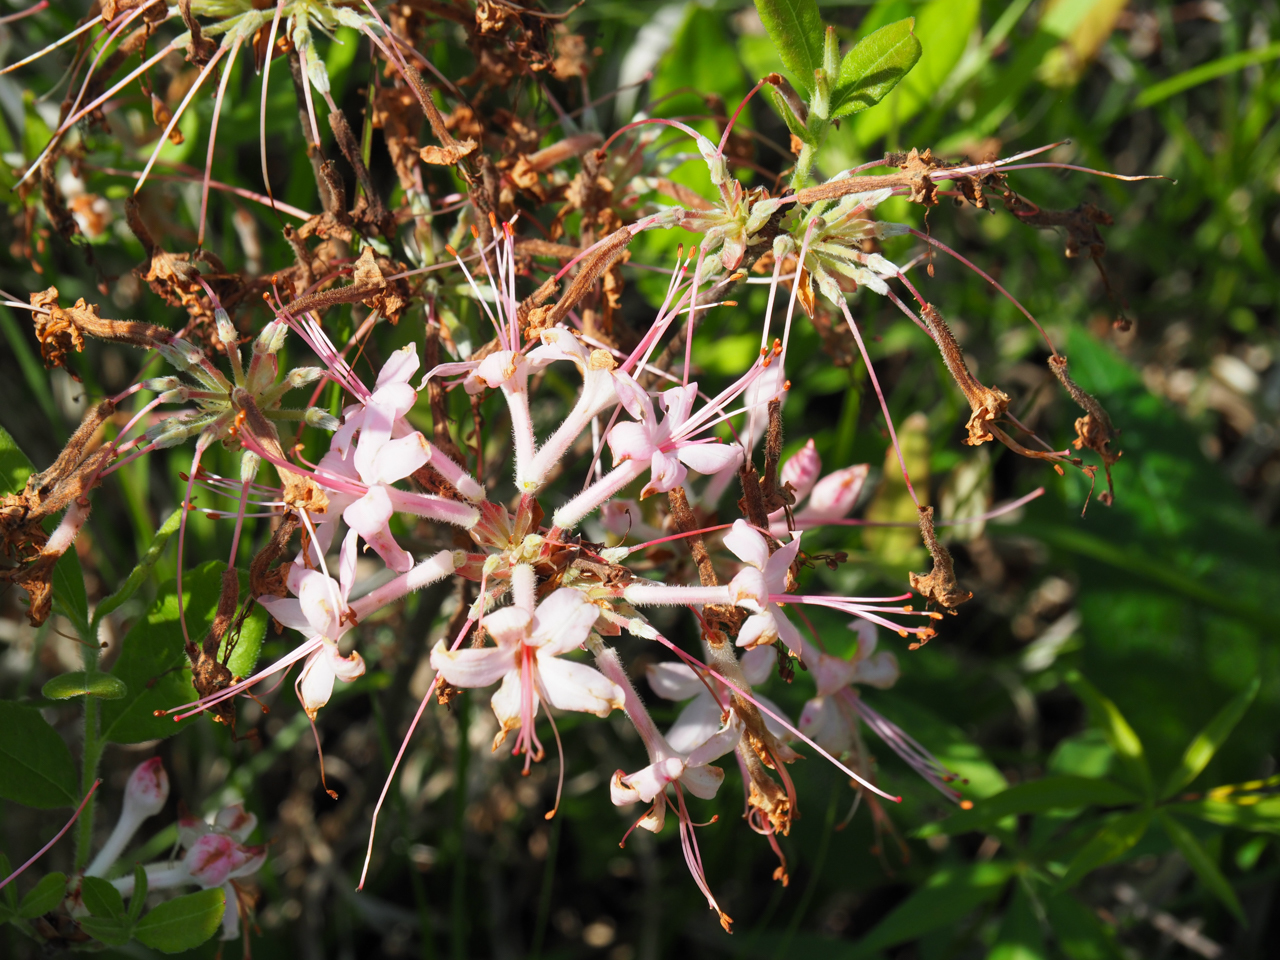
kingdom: Plantae
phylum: Tracheophyta
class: Magnoliopsida
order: Ericales
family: Ericaceae
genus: Rhododendron
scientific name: Rhododendron periclymenoides
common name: Election-pink
